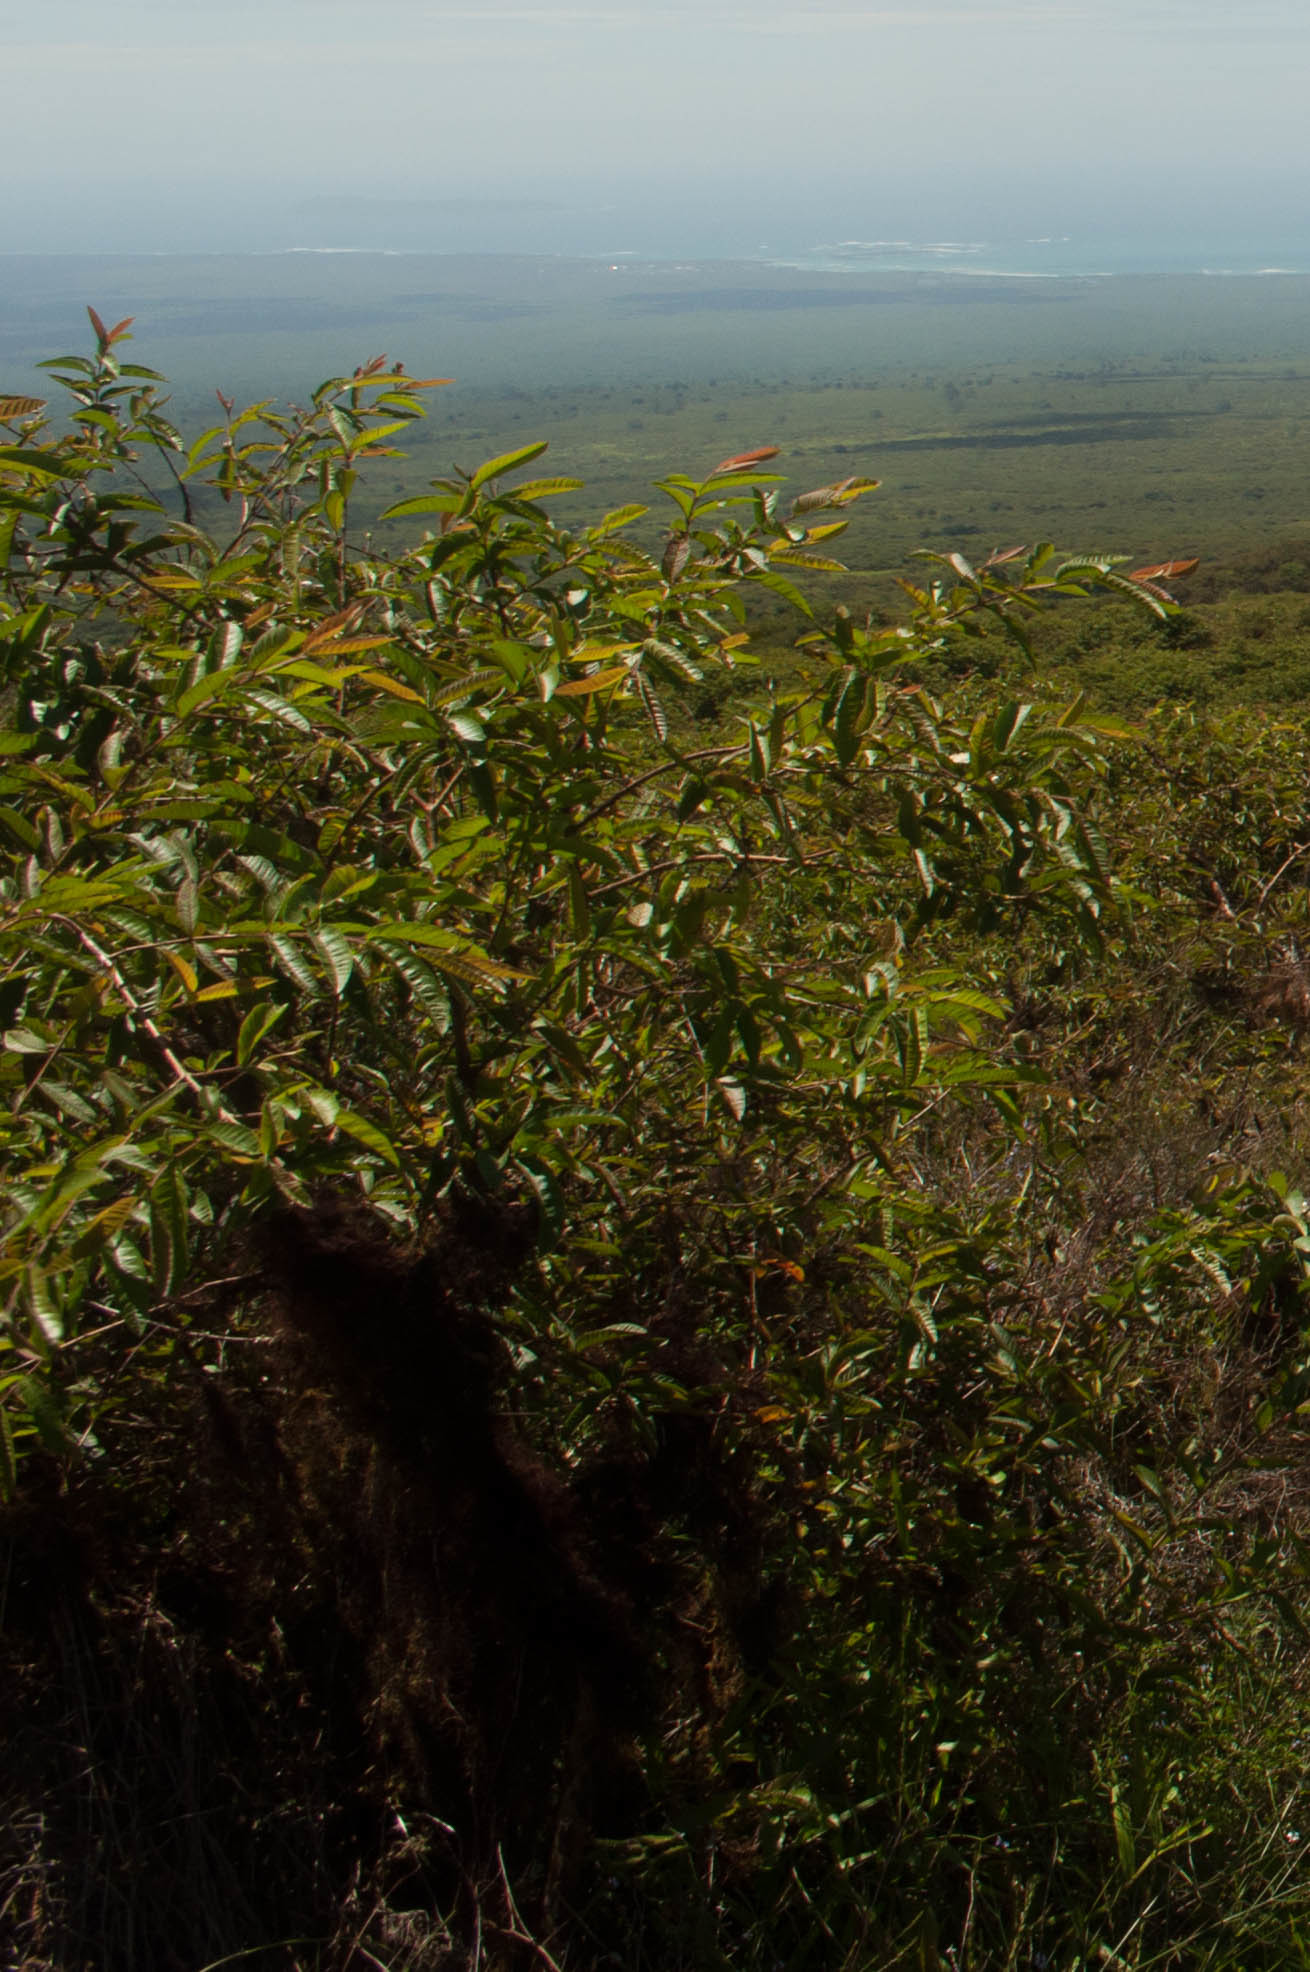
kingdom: Plantae
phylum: Tracheophyta
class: Magnoliopsida
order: Myrtales
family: Myrtaceae
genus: Psidium
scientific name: Psidium guajava
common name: Guava
